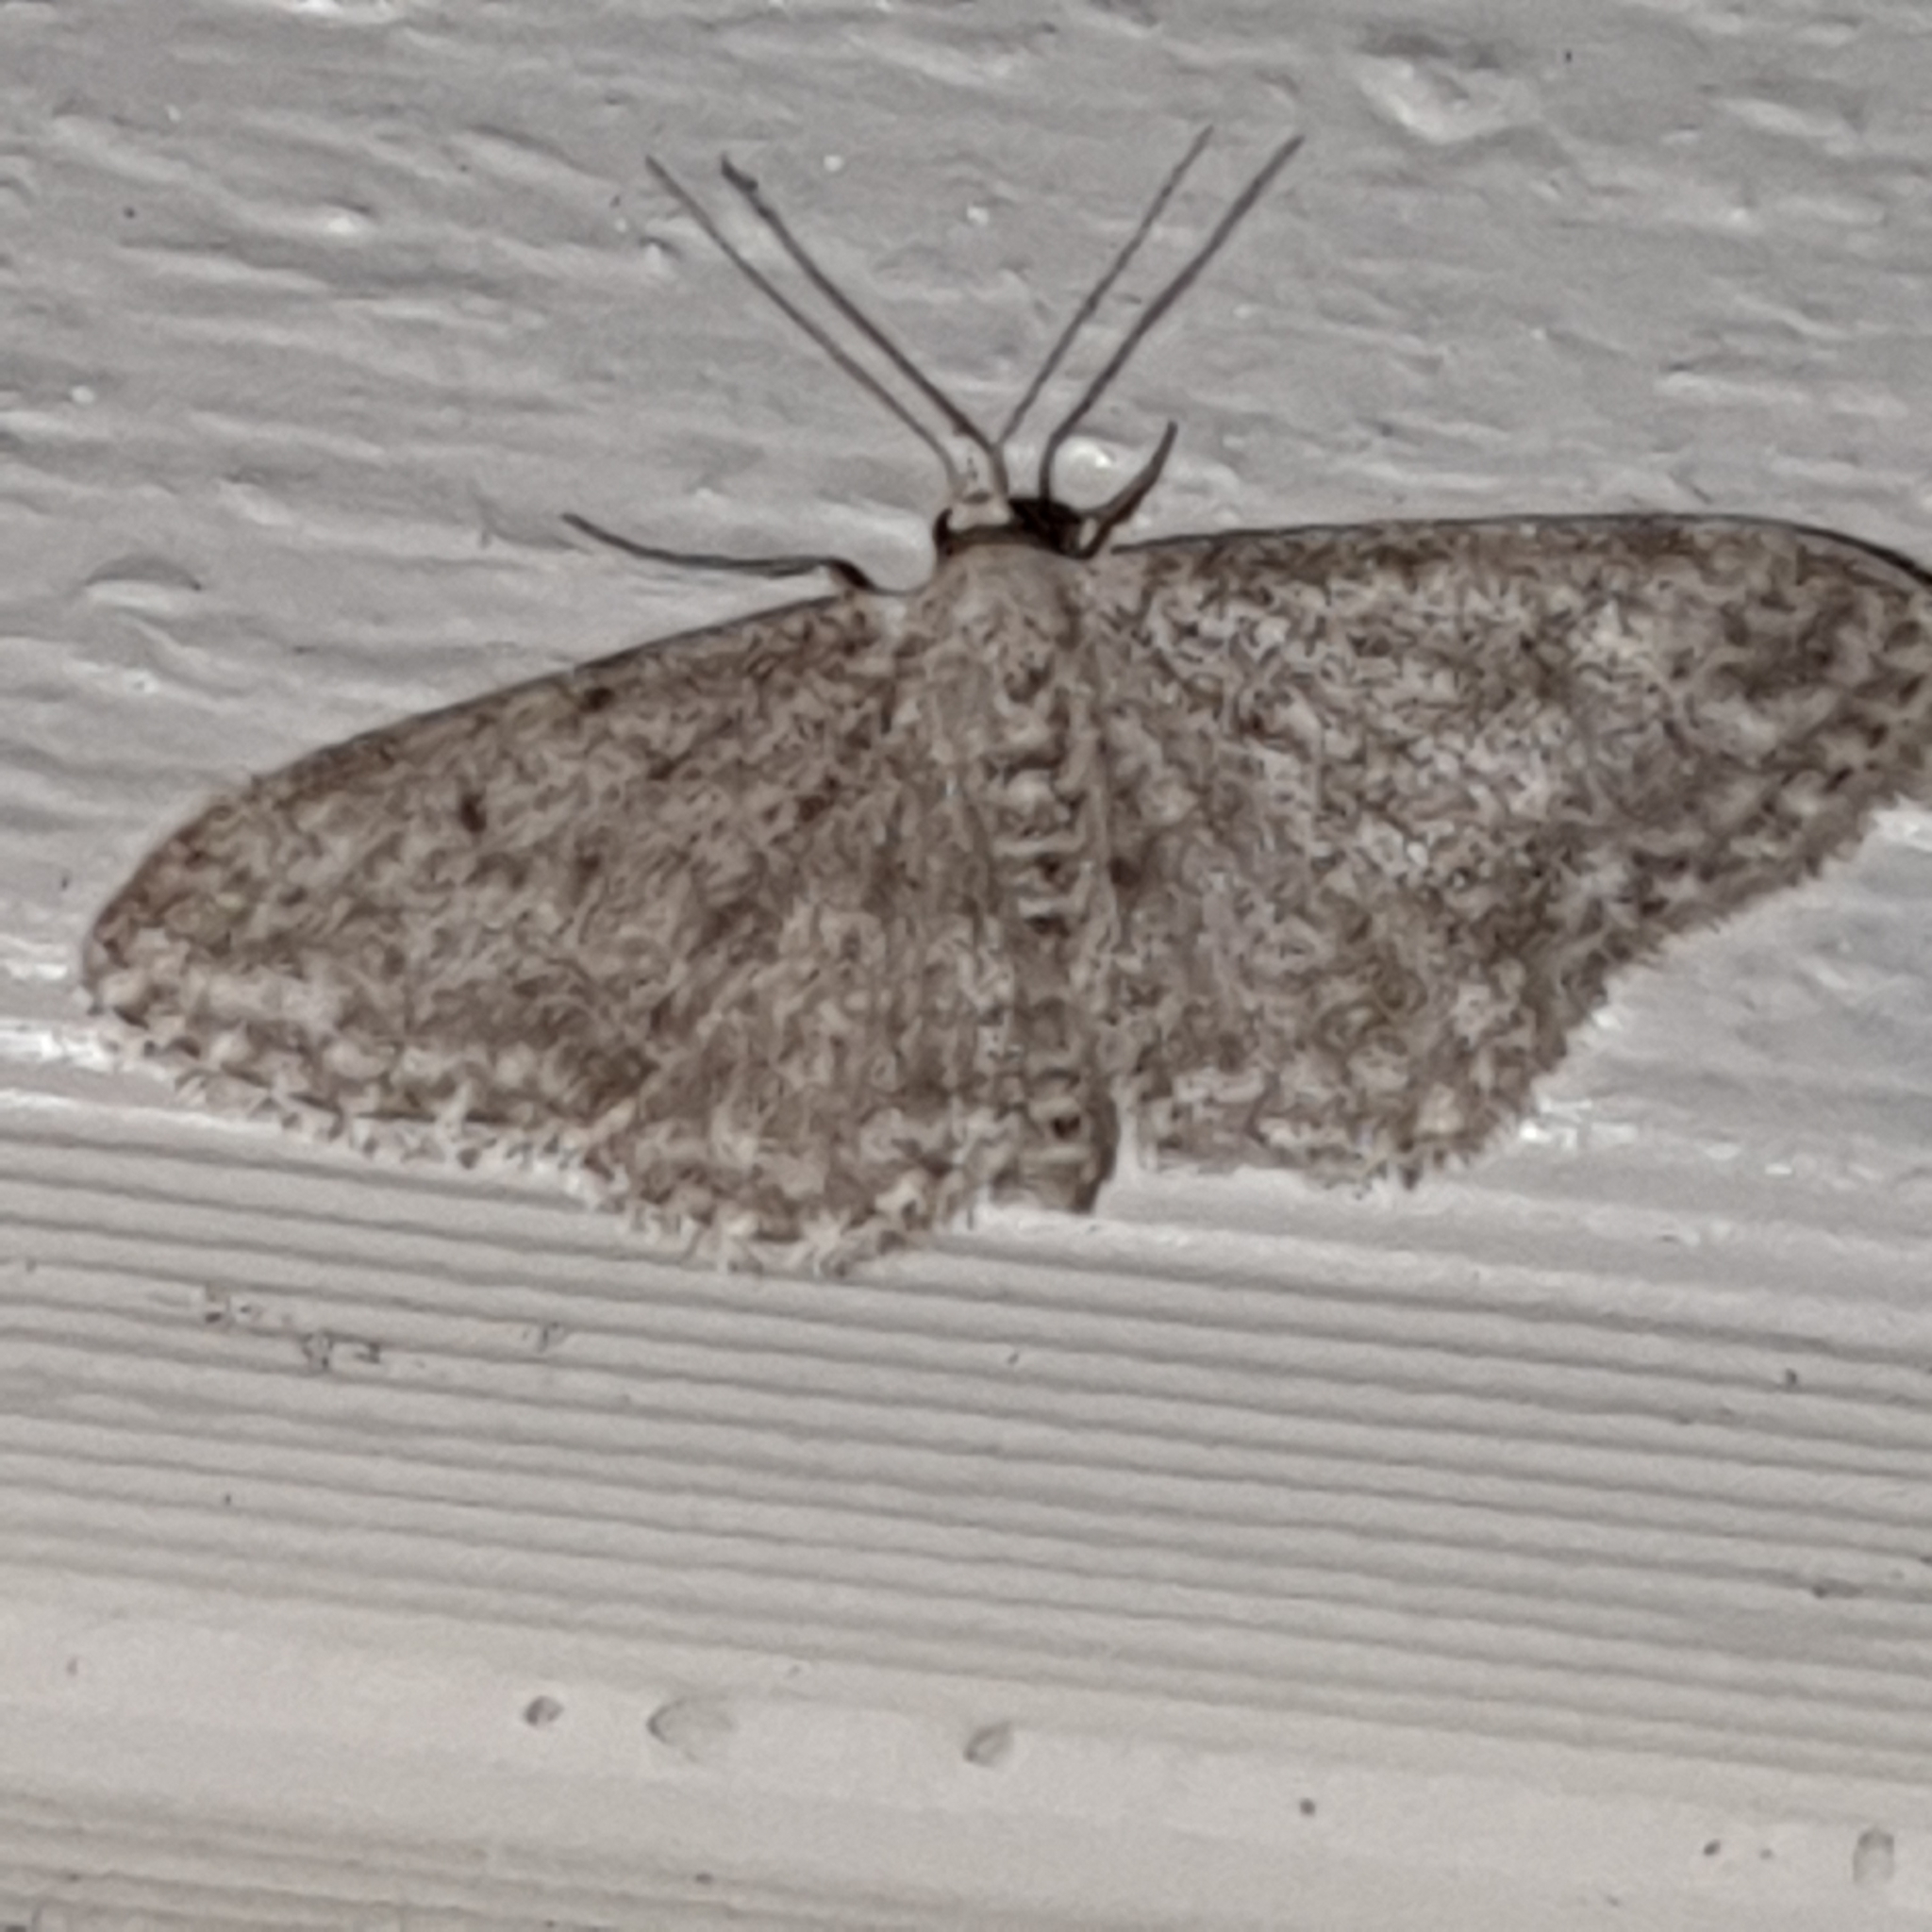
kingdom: Animalia
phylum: Arthropoda
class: Insecta
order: Lepidoptera
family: Geometridae
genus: Idaea
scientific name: Idaea seriata
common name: Small dusty wave
